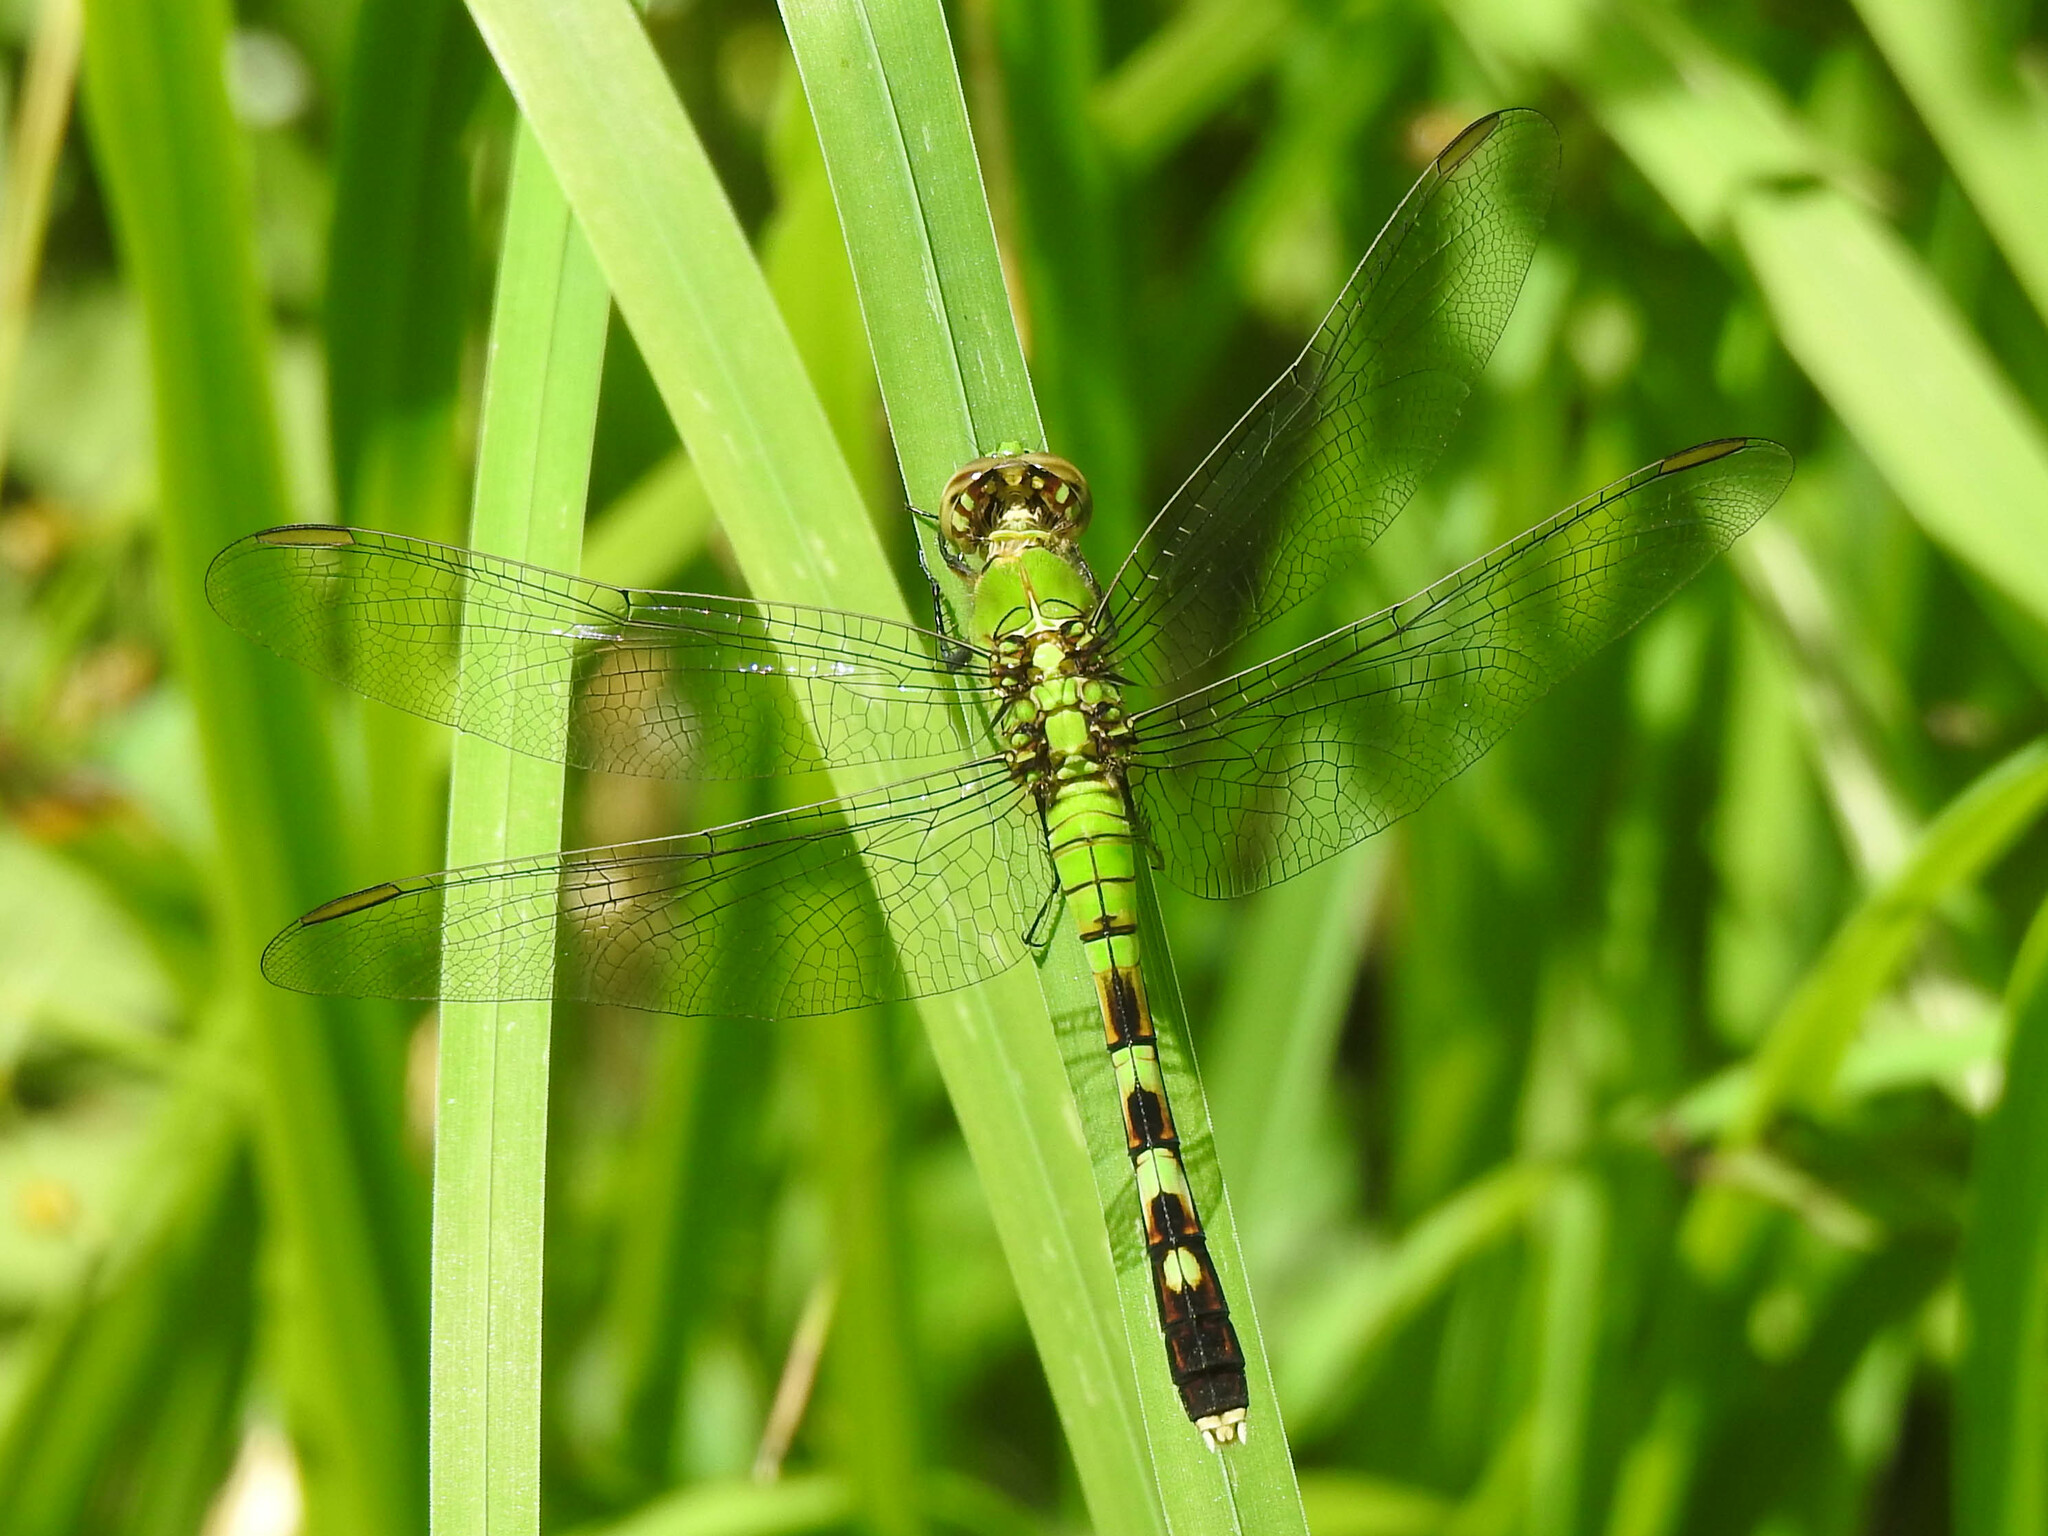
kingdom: Animalia
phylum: Arthropoda
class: Insecta
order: Odonata
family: Libellulidae
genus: Erythemis
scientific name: Erythemis simplicicollis
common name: Eastern pondhawk
